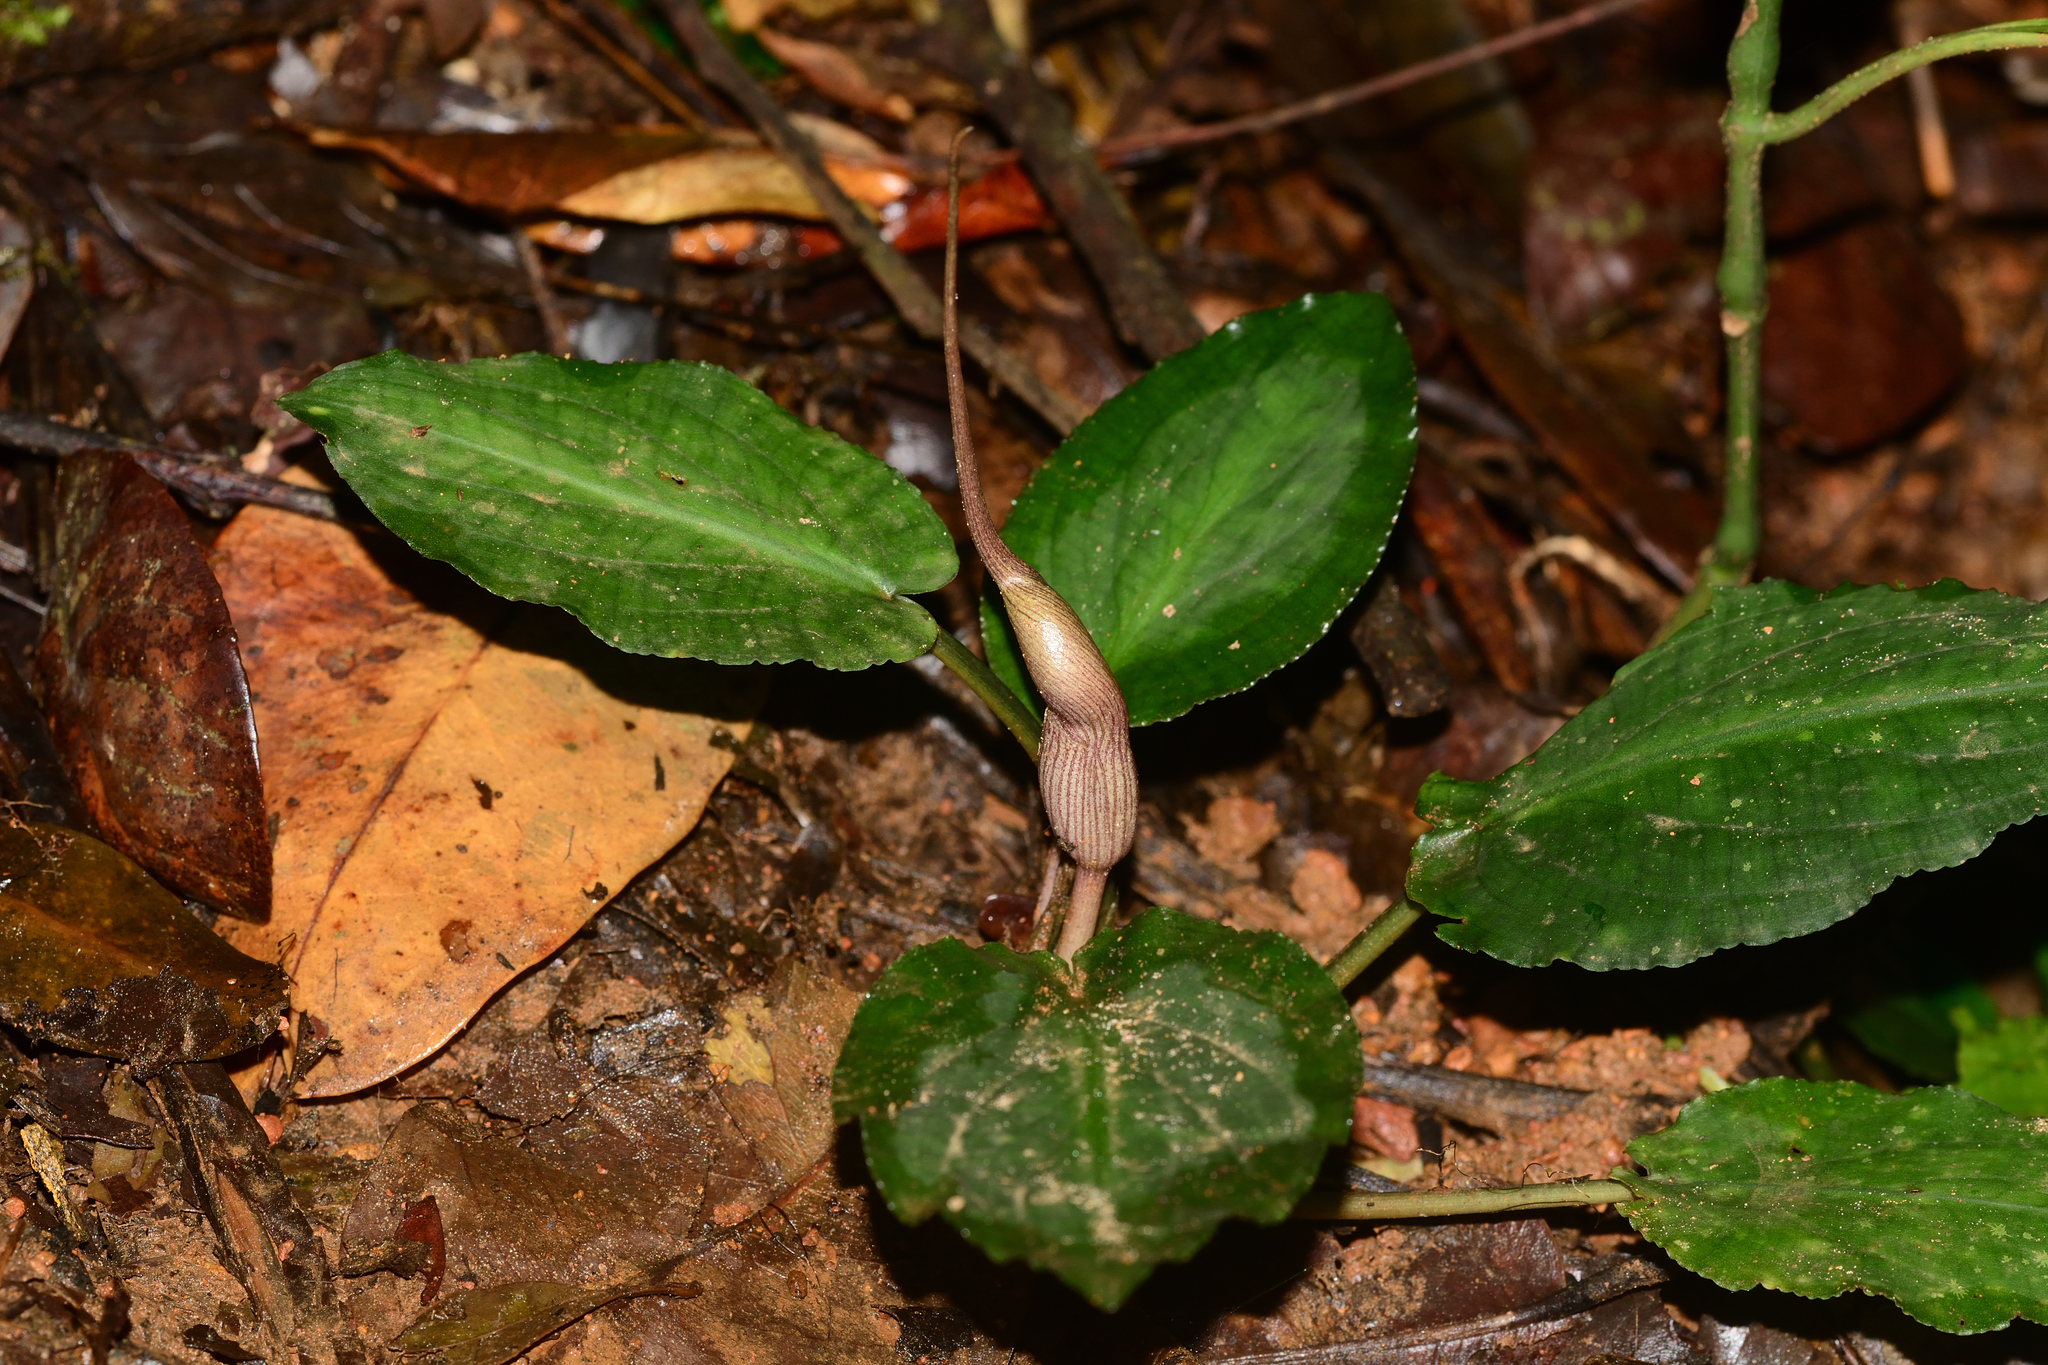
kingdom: Plantae
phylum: Tracheophyta
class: Liliopsida
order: Alismatales
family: Araceae
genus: Lagenandra
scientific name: Lagenandra meeboldii
